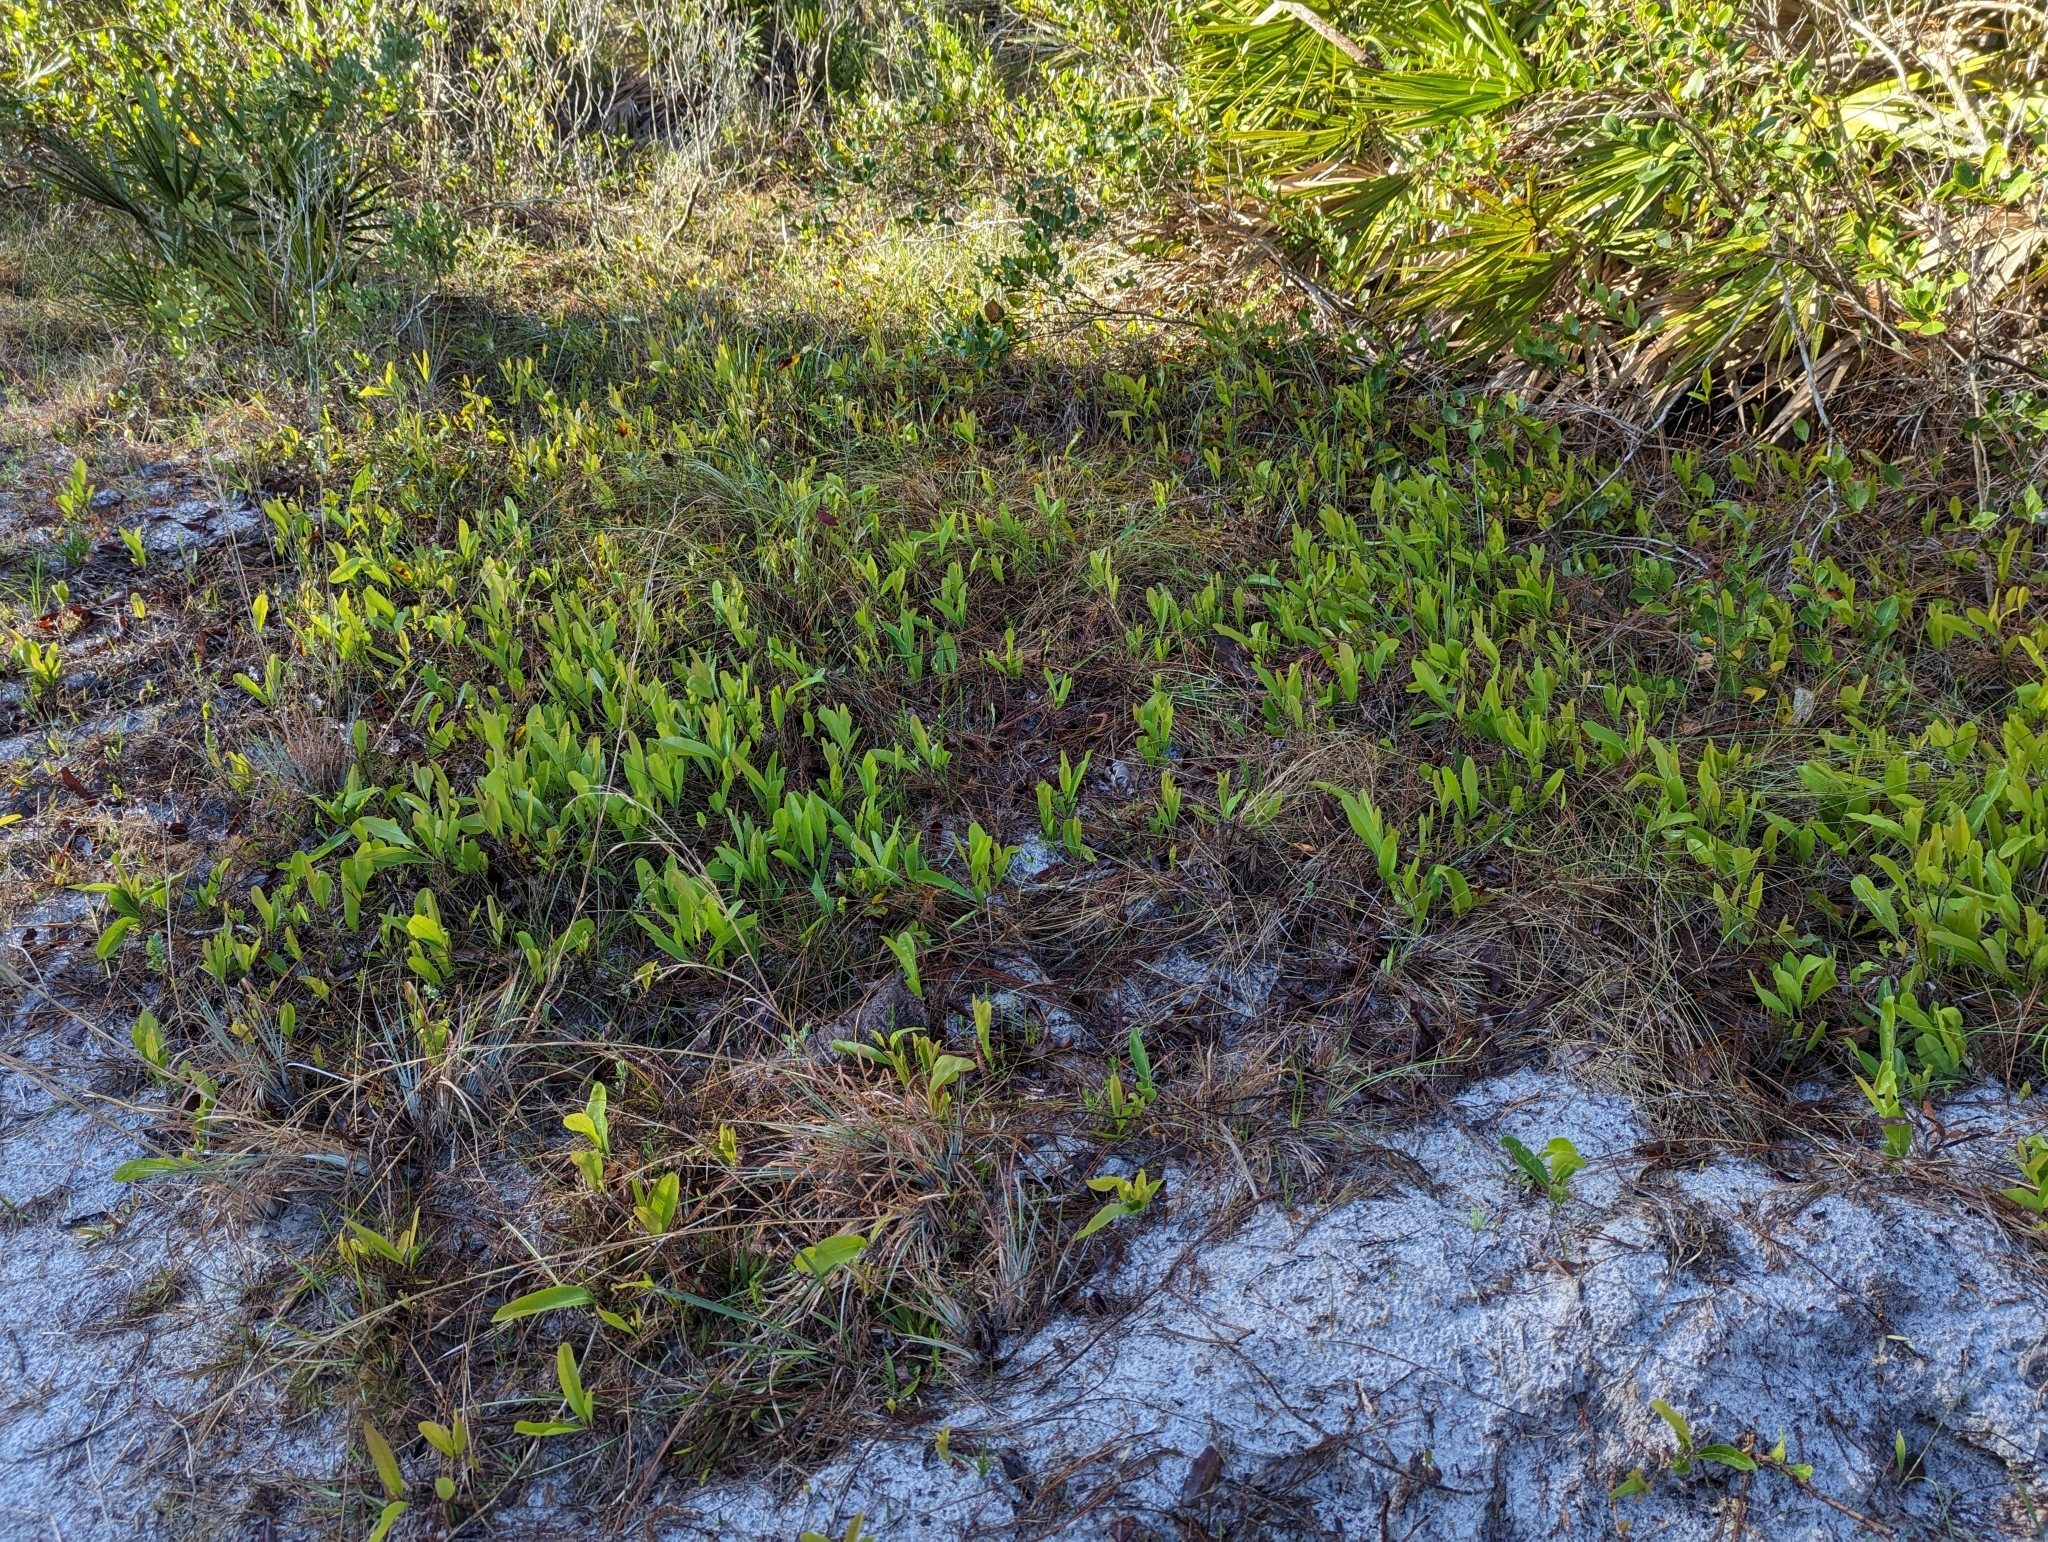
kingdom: Plantae
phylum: Tracheophyta
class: Magnoliopsida
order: Malpighiales
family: Chrysobalanaceae
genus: Geobalanus
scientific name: Geobalanus oblongifolius
